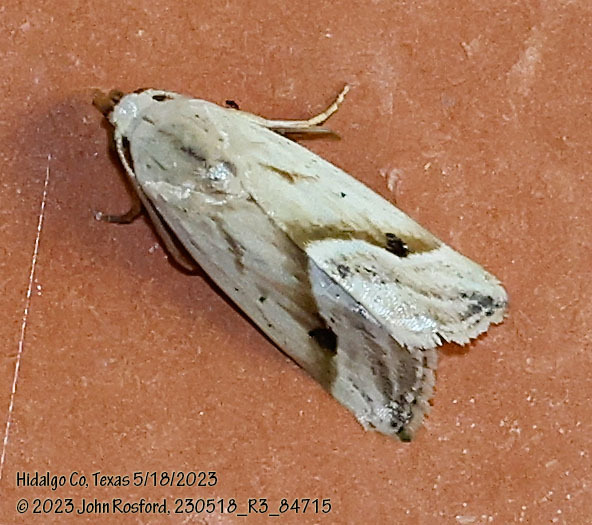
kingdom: Animalia
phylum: Arthropoda
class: Insecta
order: Lepidoptera
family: Noctuidae
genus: Micrathetis
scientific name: Micrathetis tecnion
